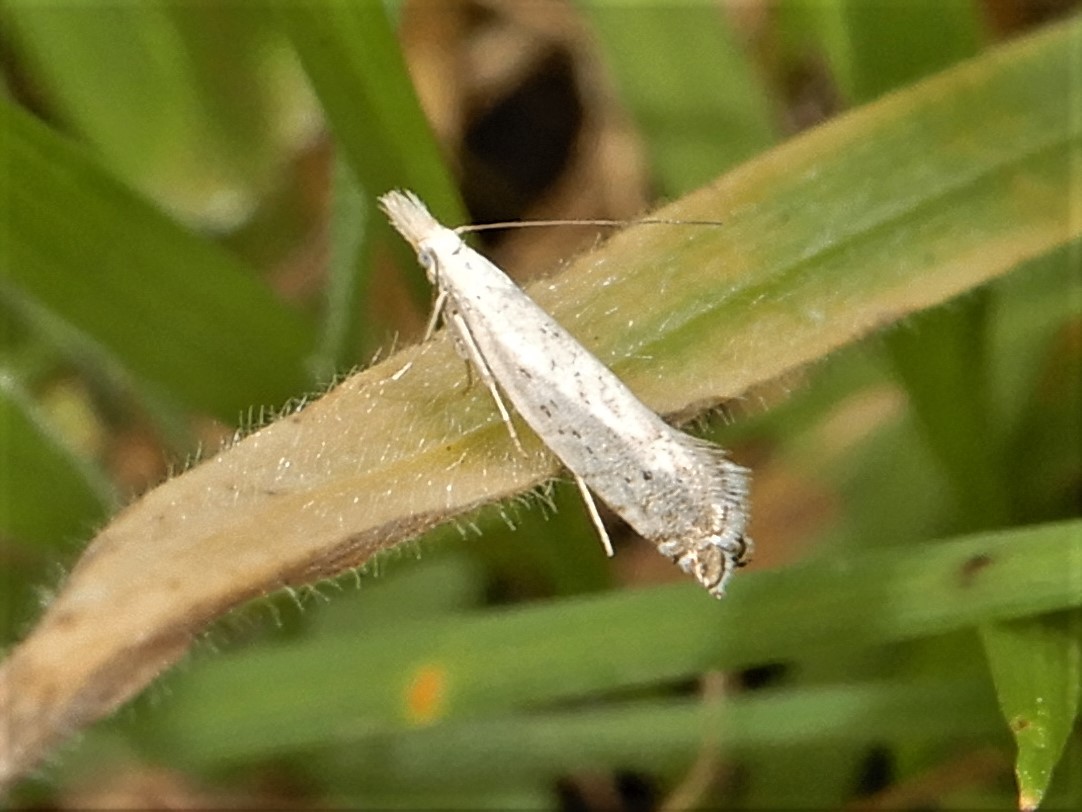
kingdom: Animalia
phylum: Arthropoda
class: Insecta
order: Lepidoptera
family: Glyphipterigidae
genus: Glyphipterix
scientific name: Glyphipterix achlyoessa
